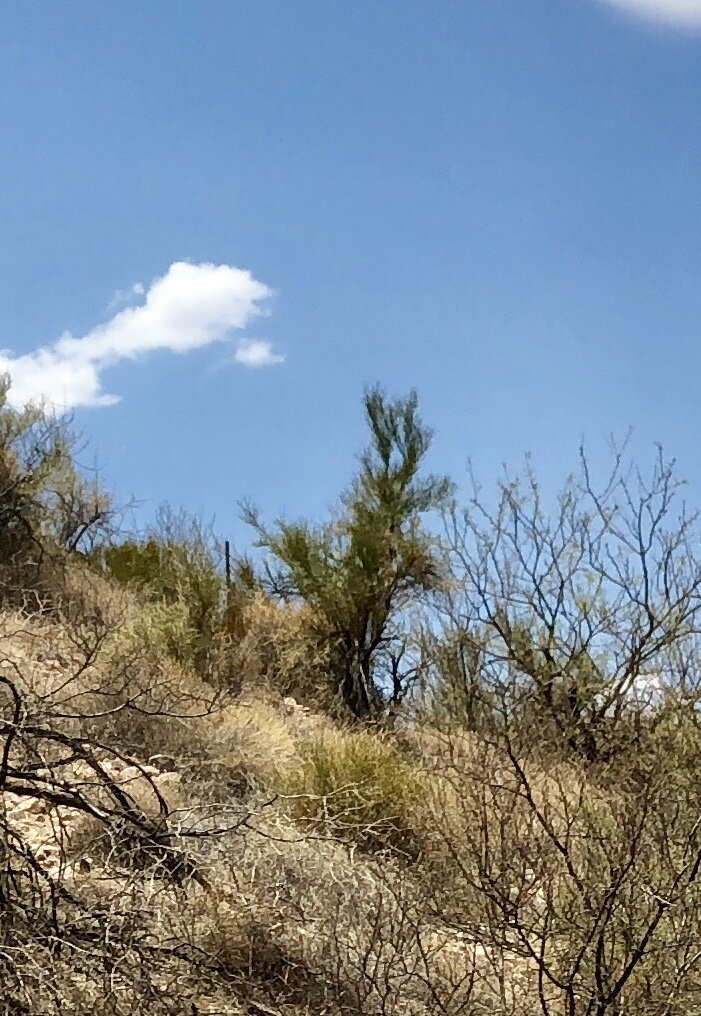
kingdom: Plantae
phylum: Tracheophyta
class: Magnoliopsida
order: Celastrales
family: Celastraceae
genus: Canotia
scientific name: Canotia holacantha
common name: Crucifixion thorns
